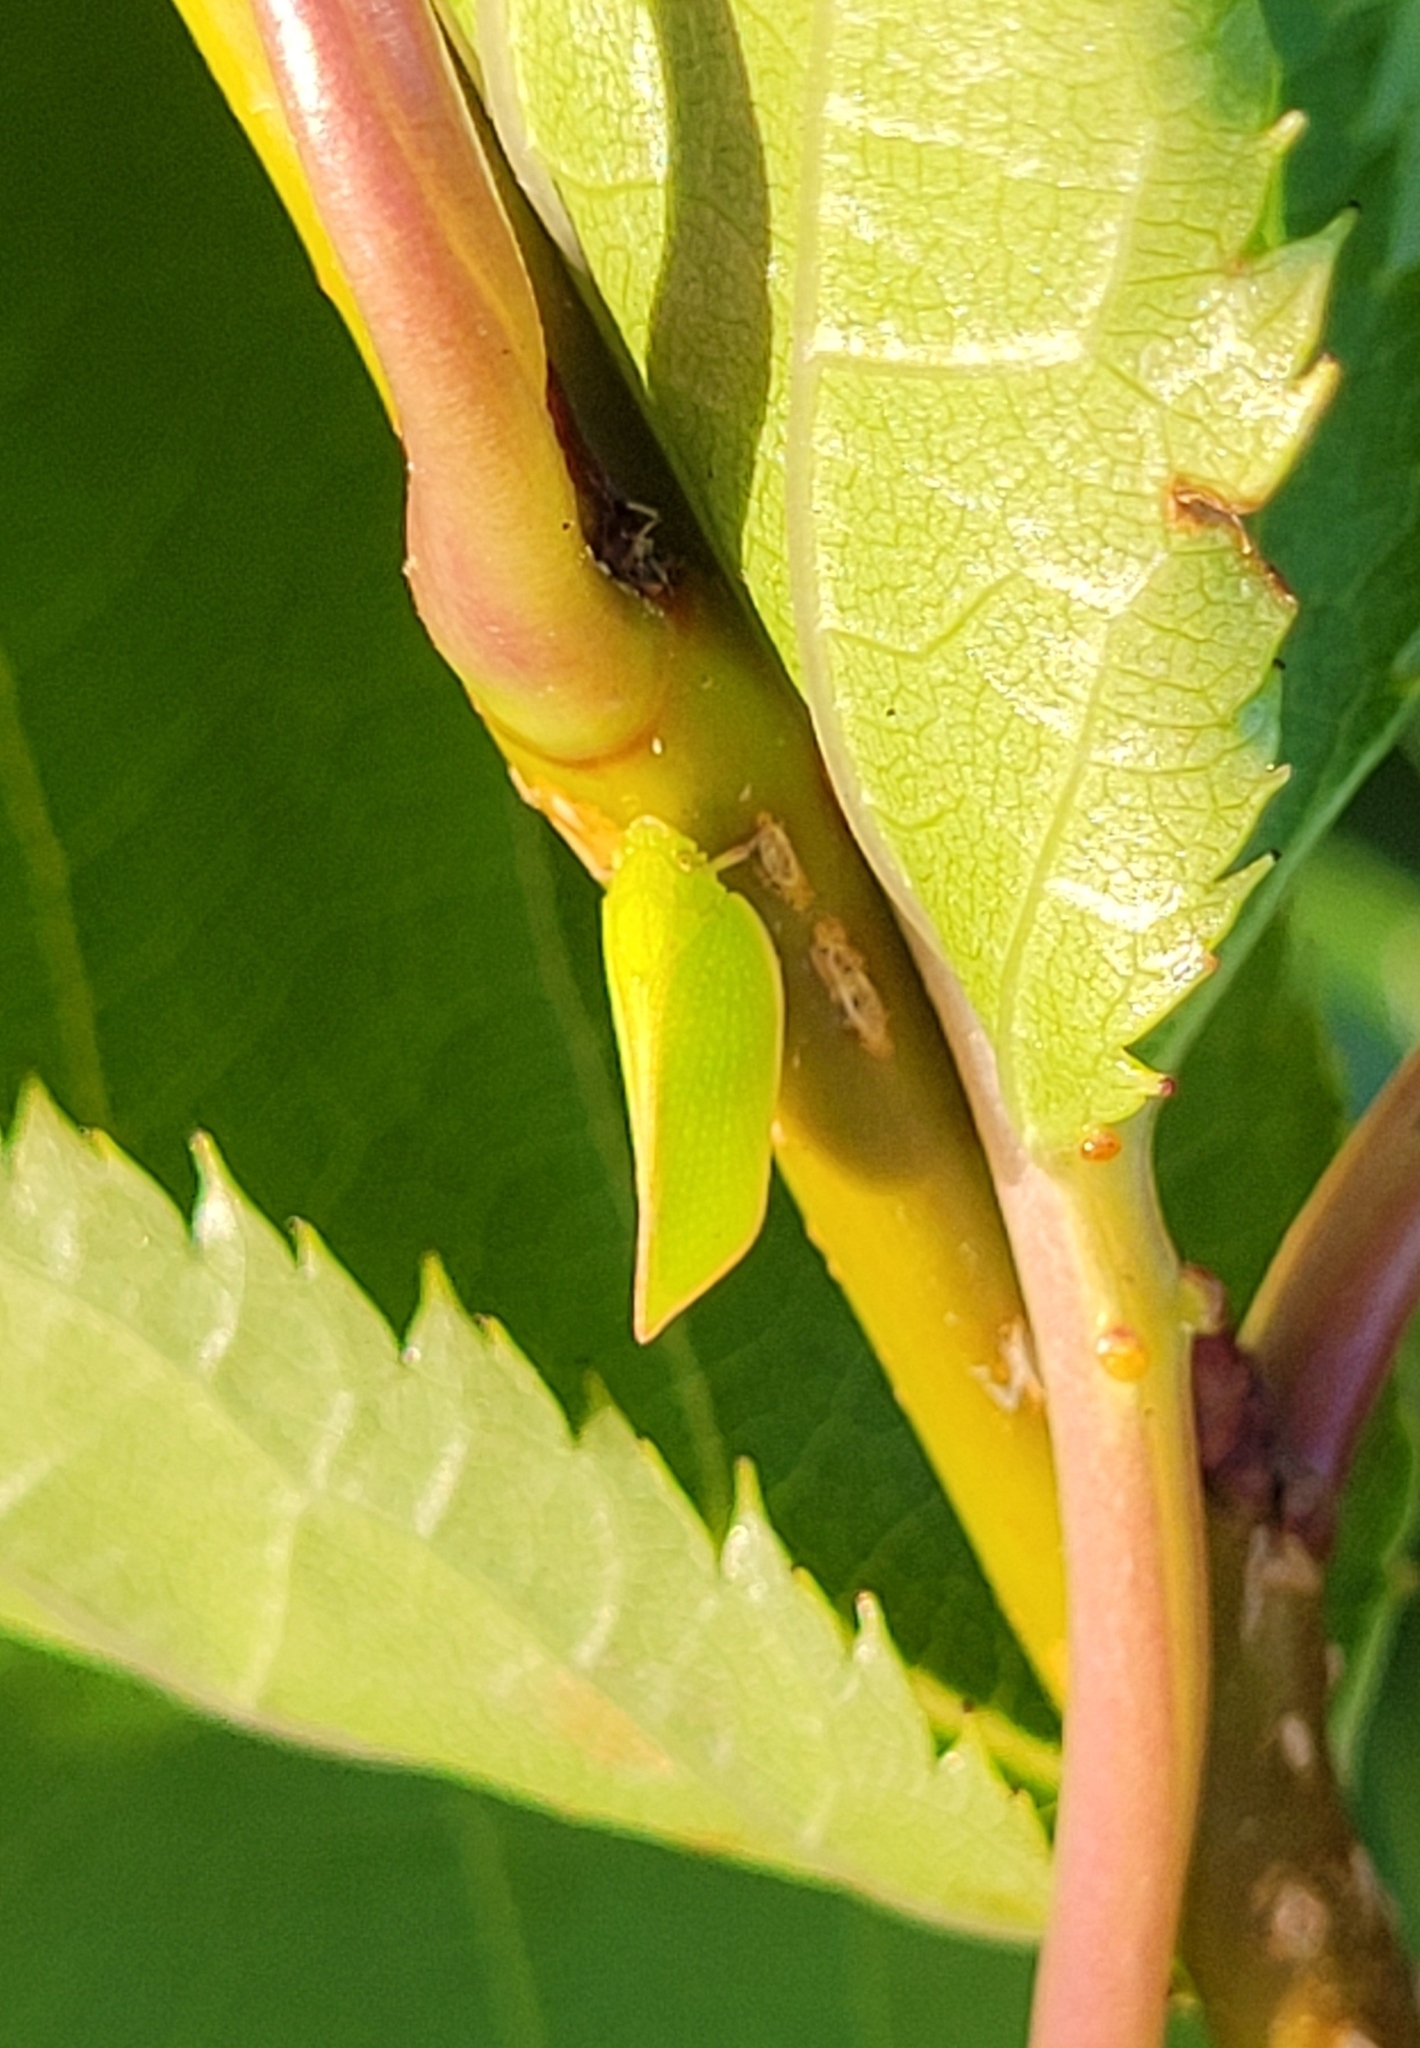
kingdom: Animalia
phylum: Arthropoda
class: Insecta
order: Hemiptera
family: Flatidae
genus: Siphanta
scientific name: Siphanta acuta
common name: Torpedo bug
